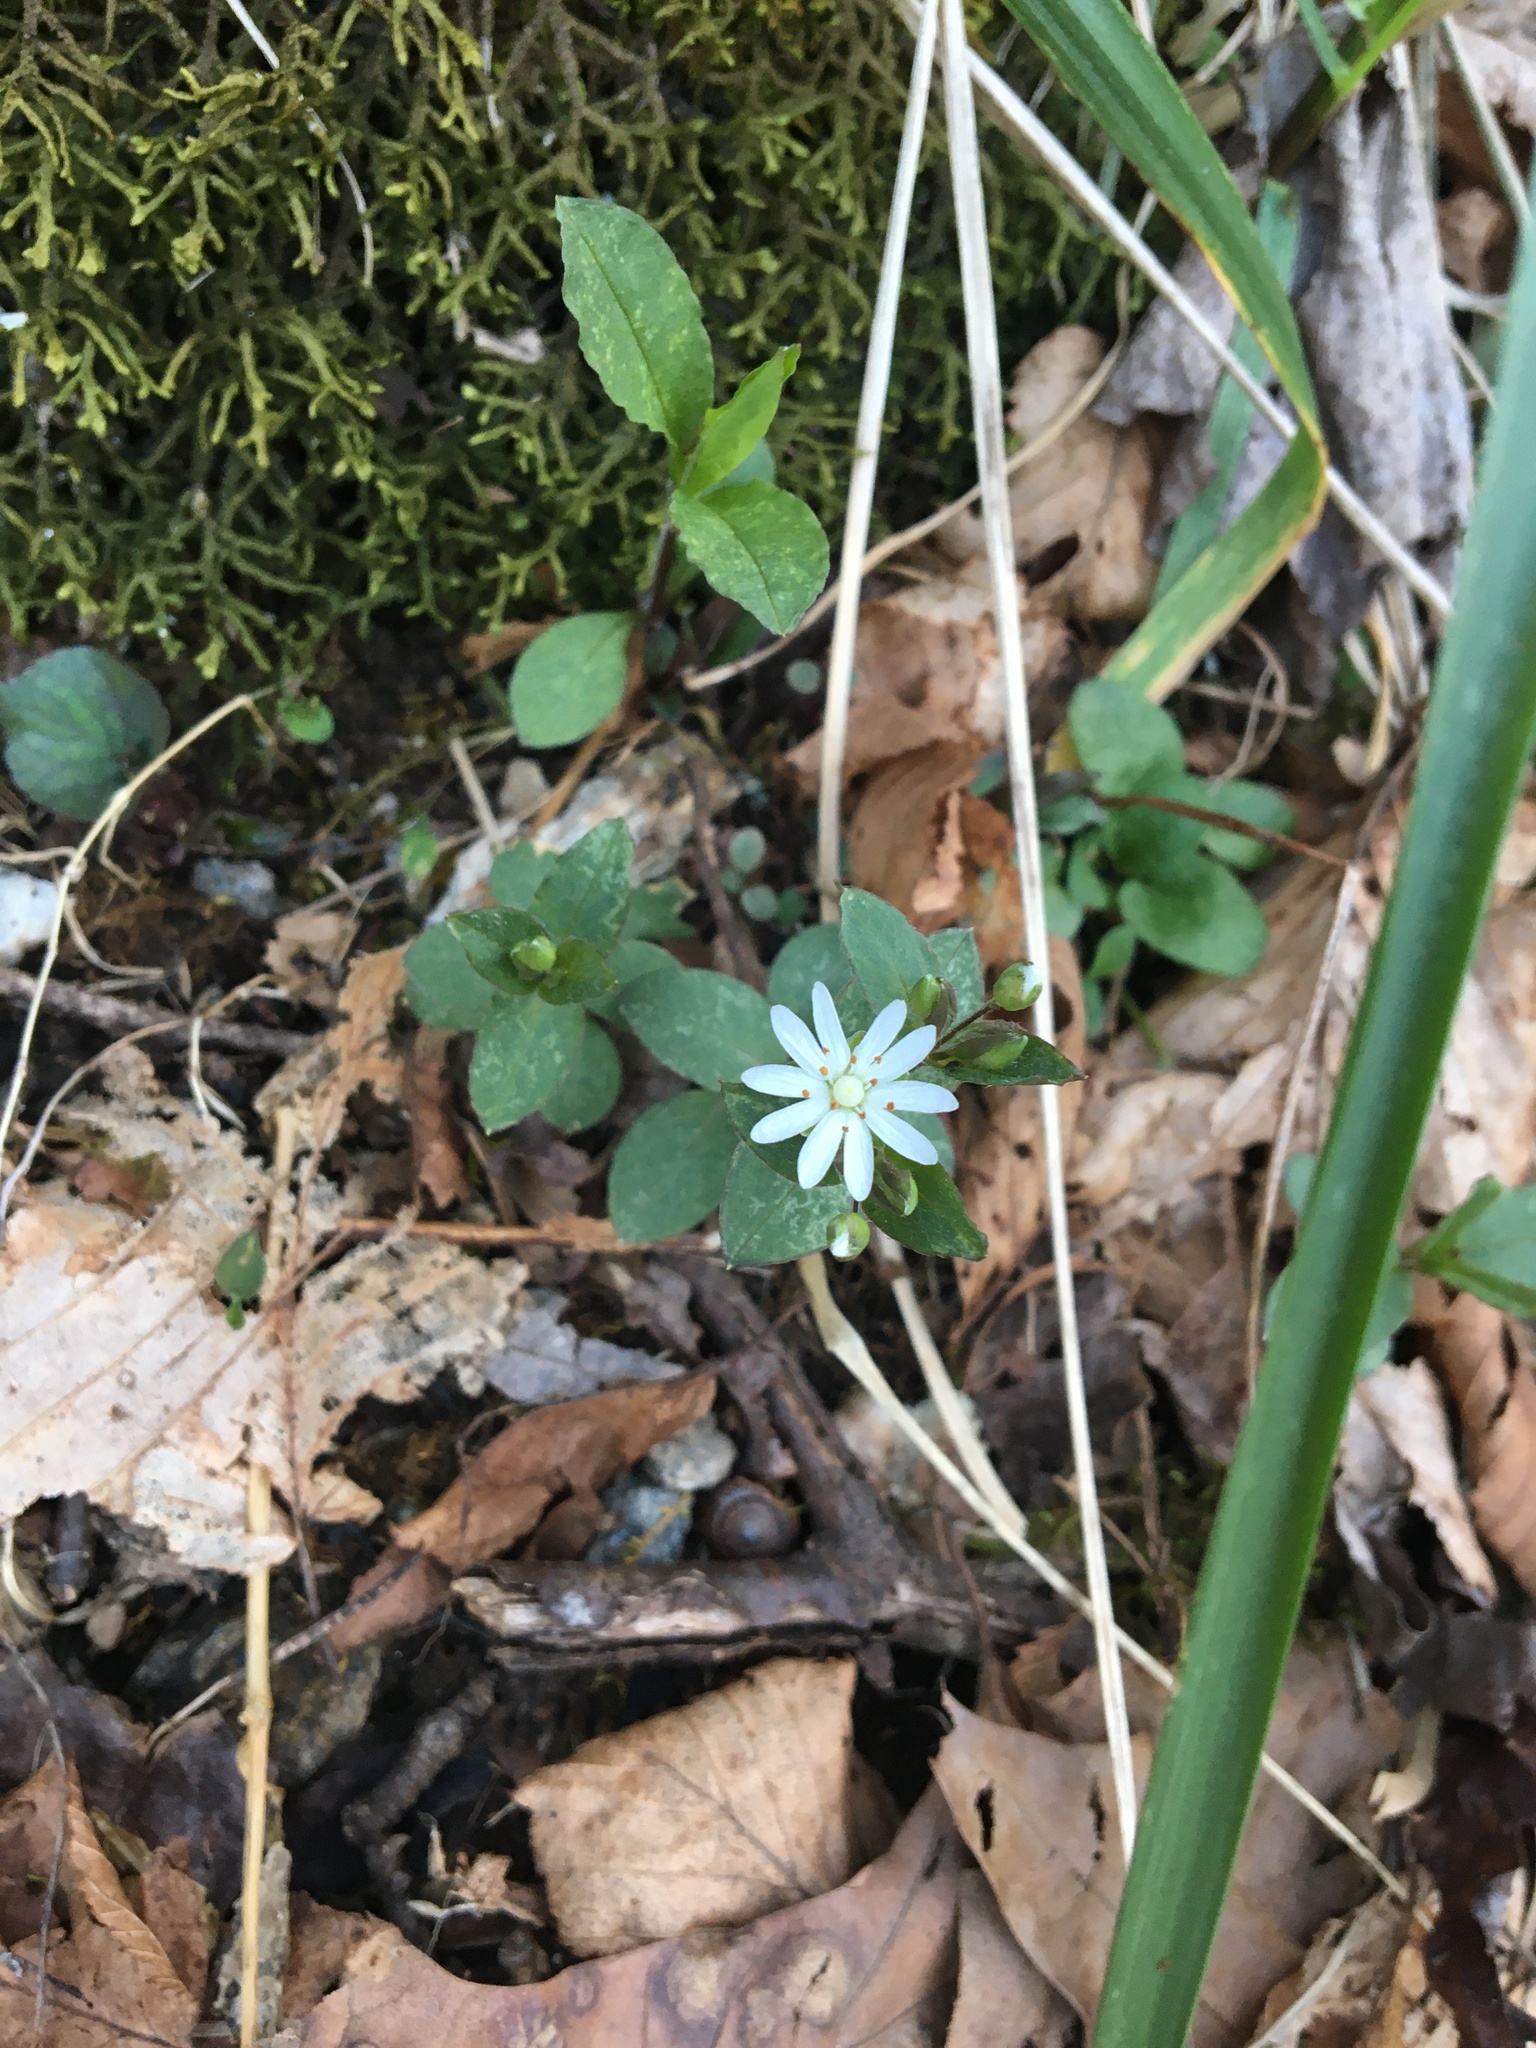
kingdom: Plantae
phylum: Tracheophyta
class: Magnoliopsida
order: Caryophyllales
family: Caryophyllaceae
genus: Stellaria
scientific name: Stellaria pubera
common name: Star chickweed
